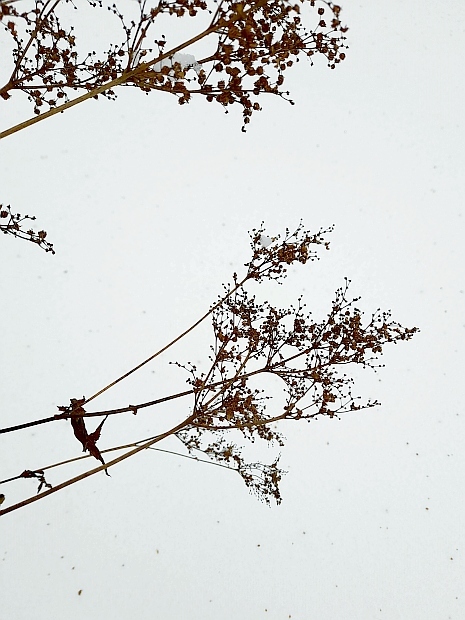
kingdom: Plantae
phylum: Tracheophyta
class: Magnoliopsida
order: Rosales
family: Rosaceae
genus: Filipendula
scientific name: Filipendula ulmaria
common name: Meadowsweet
